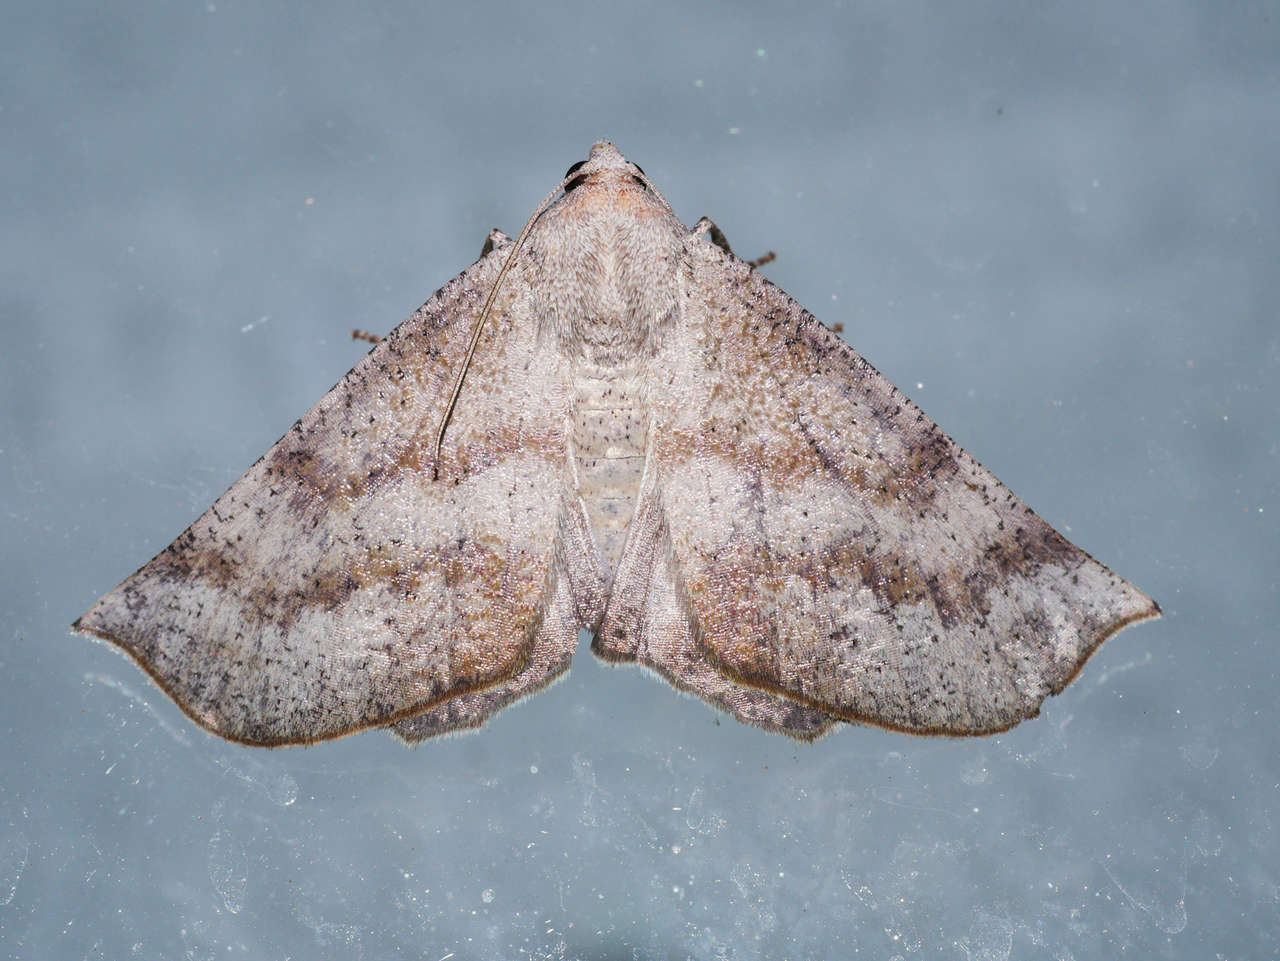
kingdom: Animalia
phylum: Arthropoda
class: Insecta
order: Lepidoptera
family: Geometridae
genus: Mnesampela
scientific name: Mnesampela lenaea
